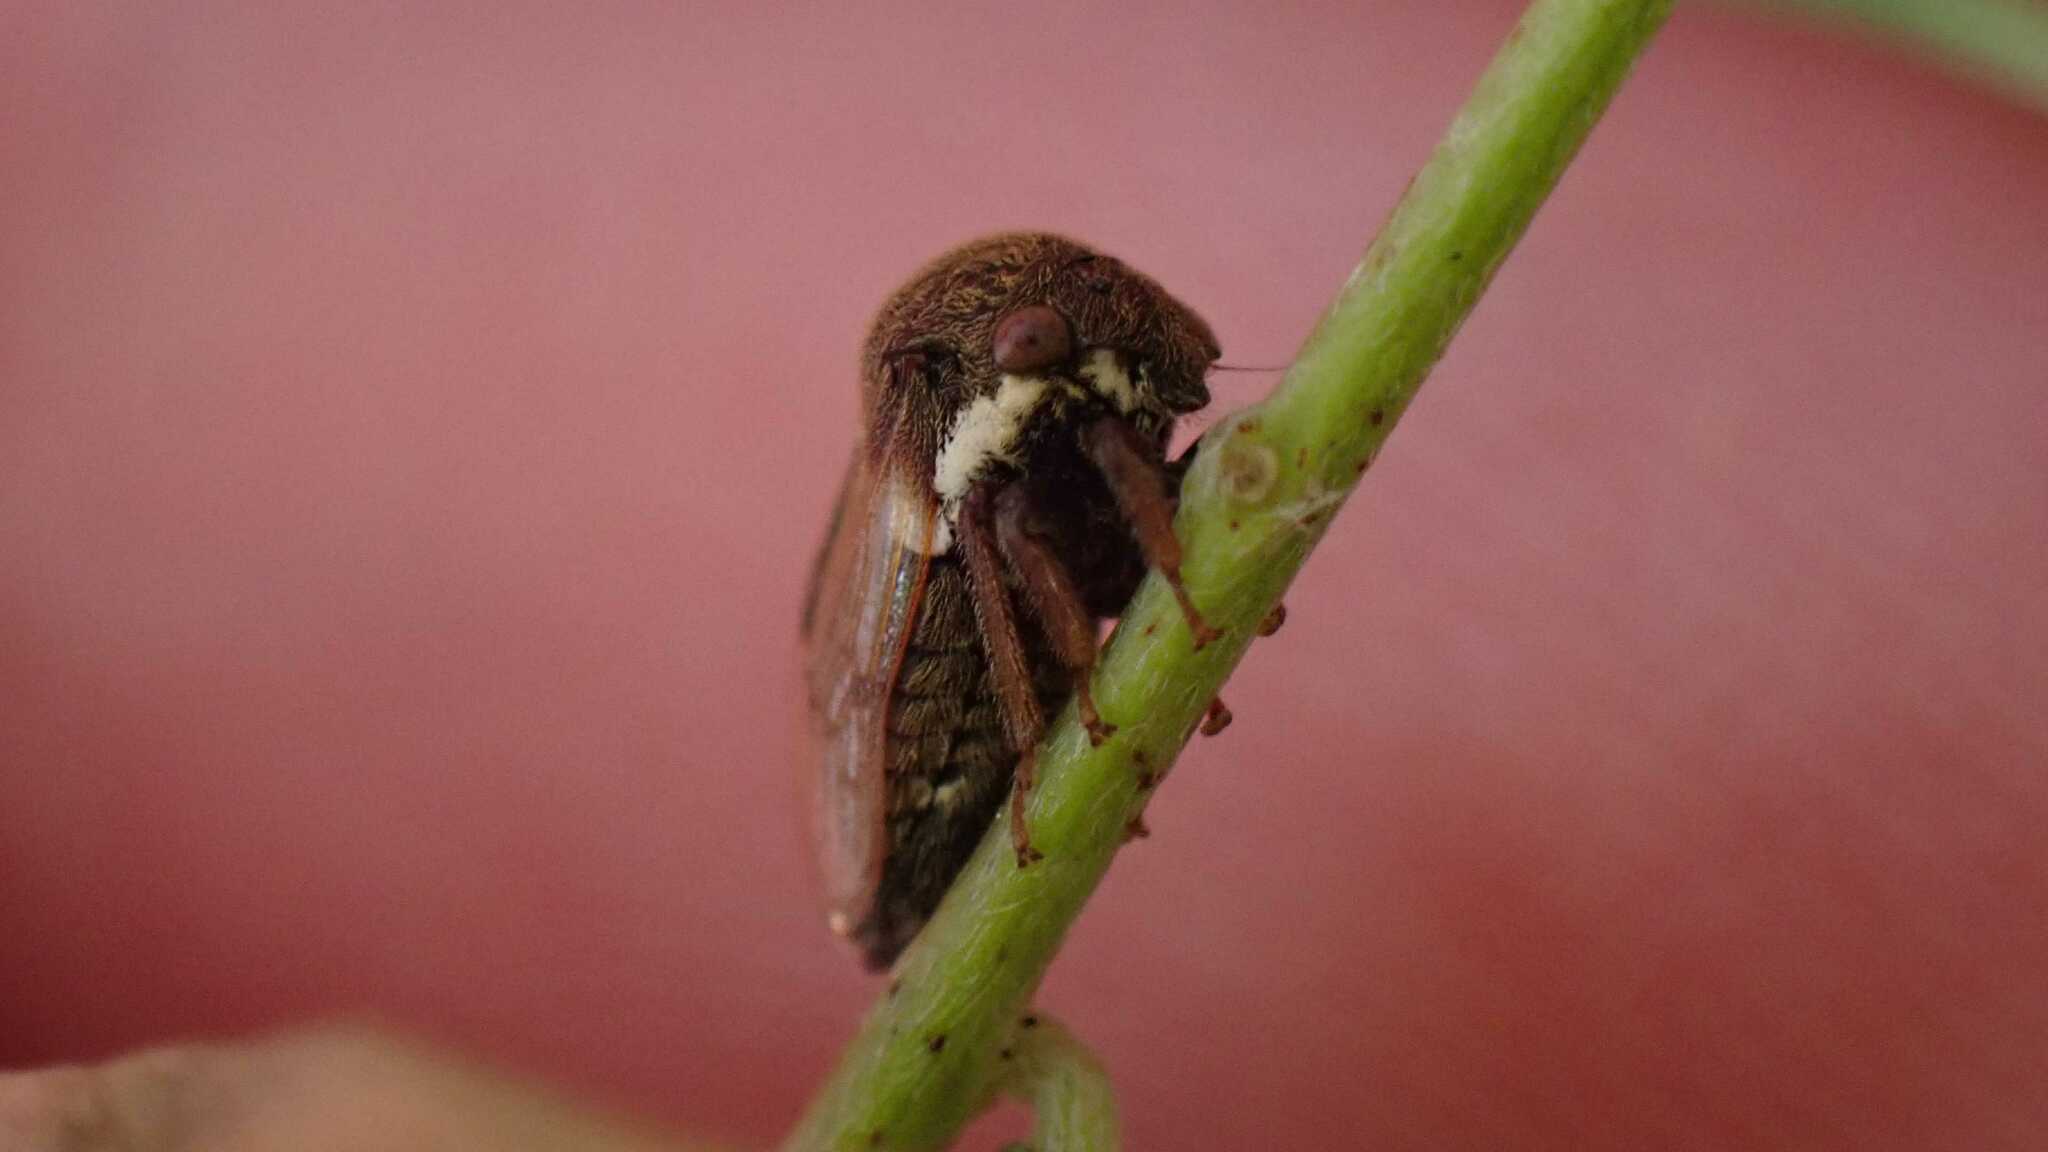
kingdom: Animalia
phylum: Arthropoda
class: Insecta
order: Hemiptera
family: Membracidae
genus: Gargara
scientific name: Gargara genistae
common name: Treehopper
